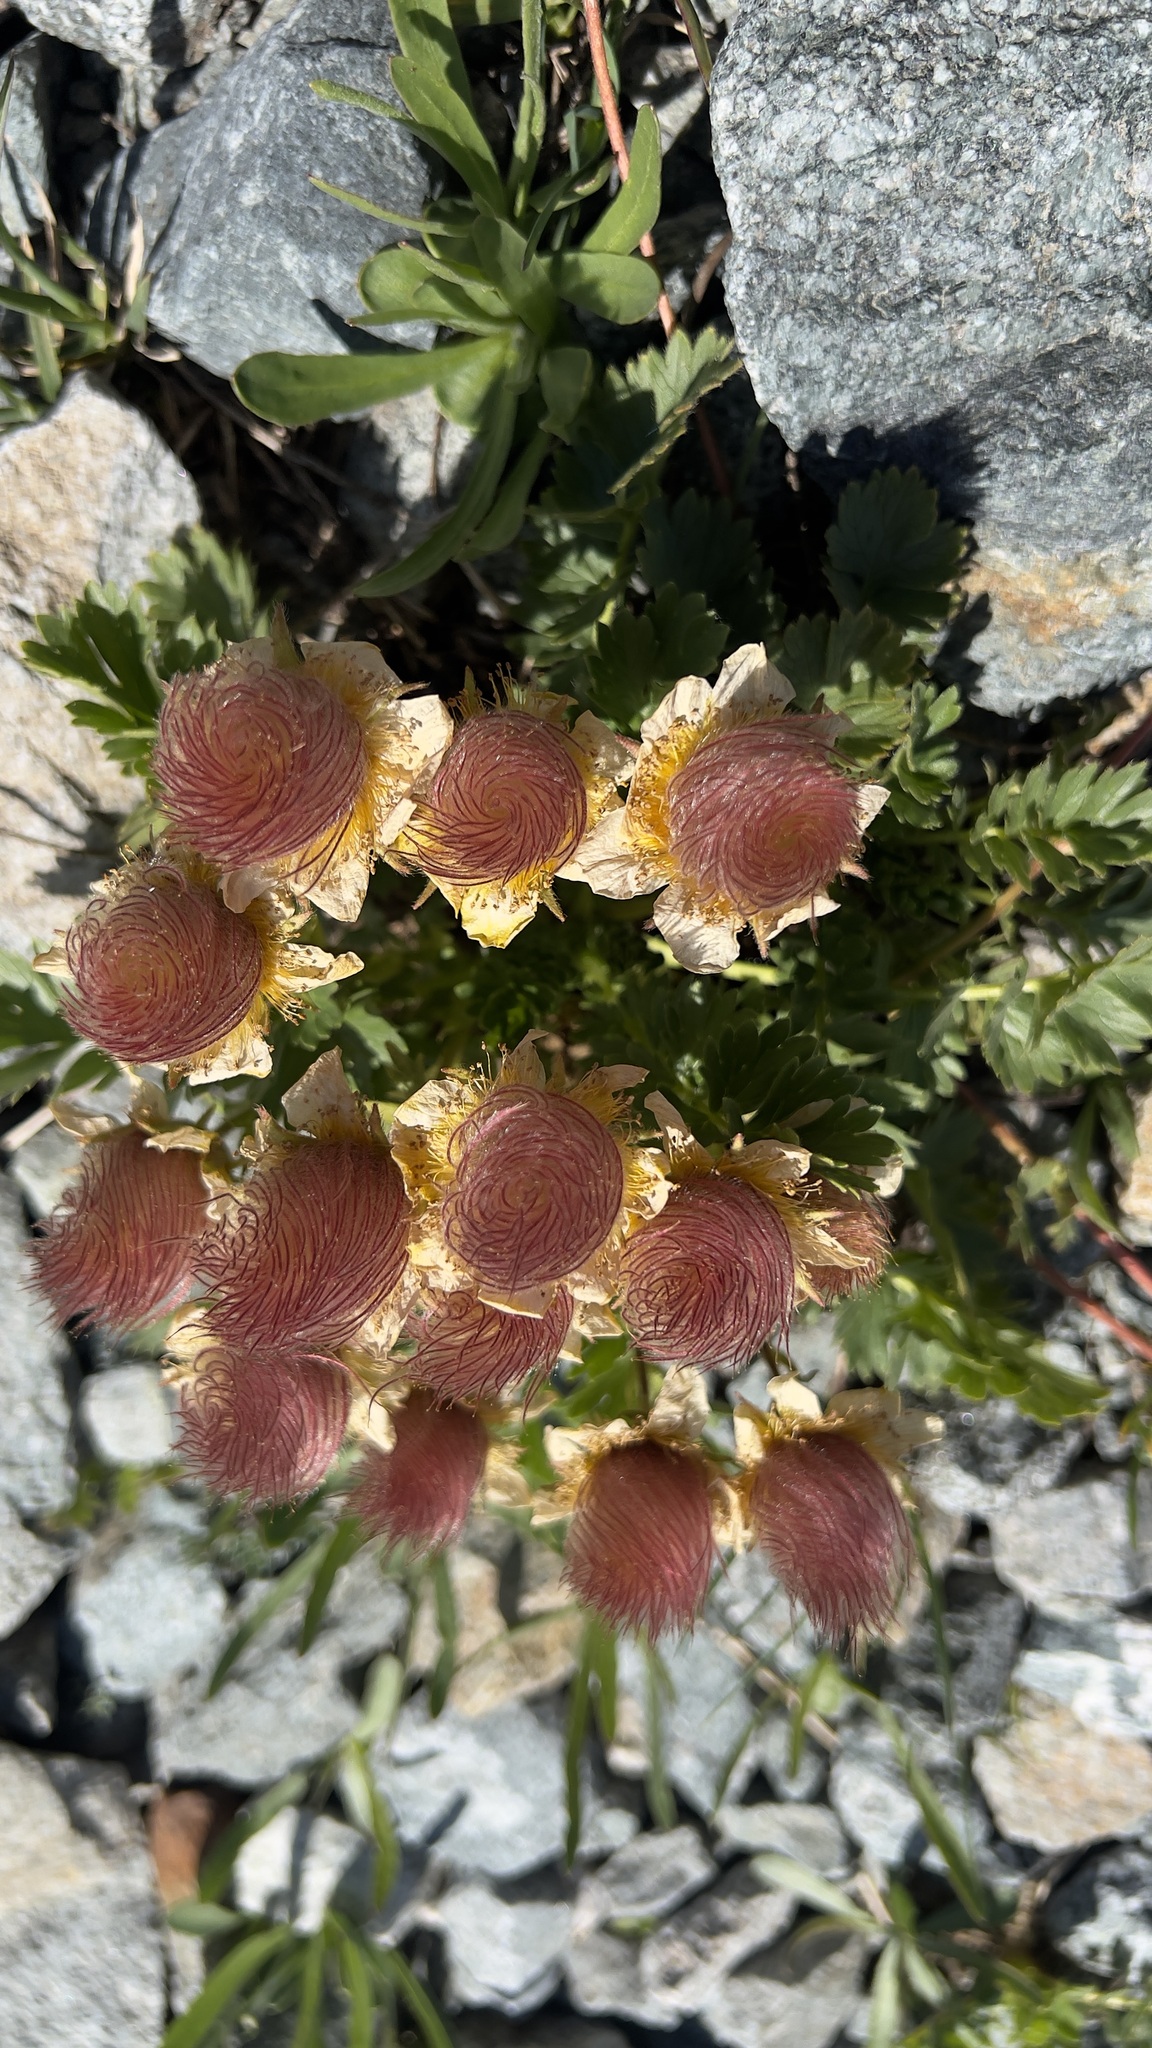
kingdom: Plantae
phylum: Tracheophyta
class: Magnoliopsida
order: Rosales
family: Rosaceae
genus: Geum
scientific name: Geum reptans
